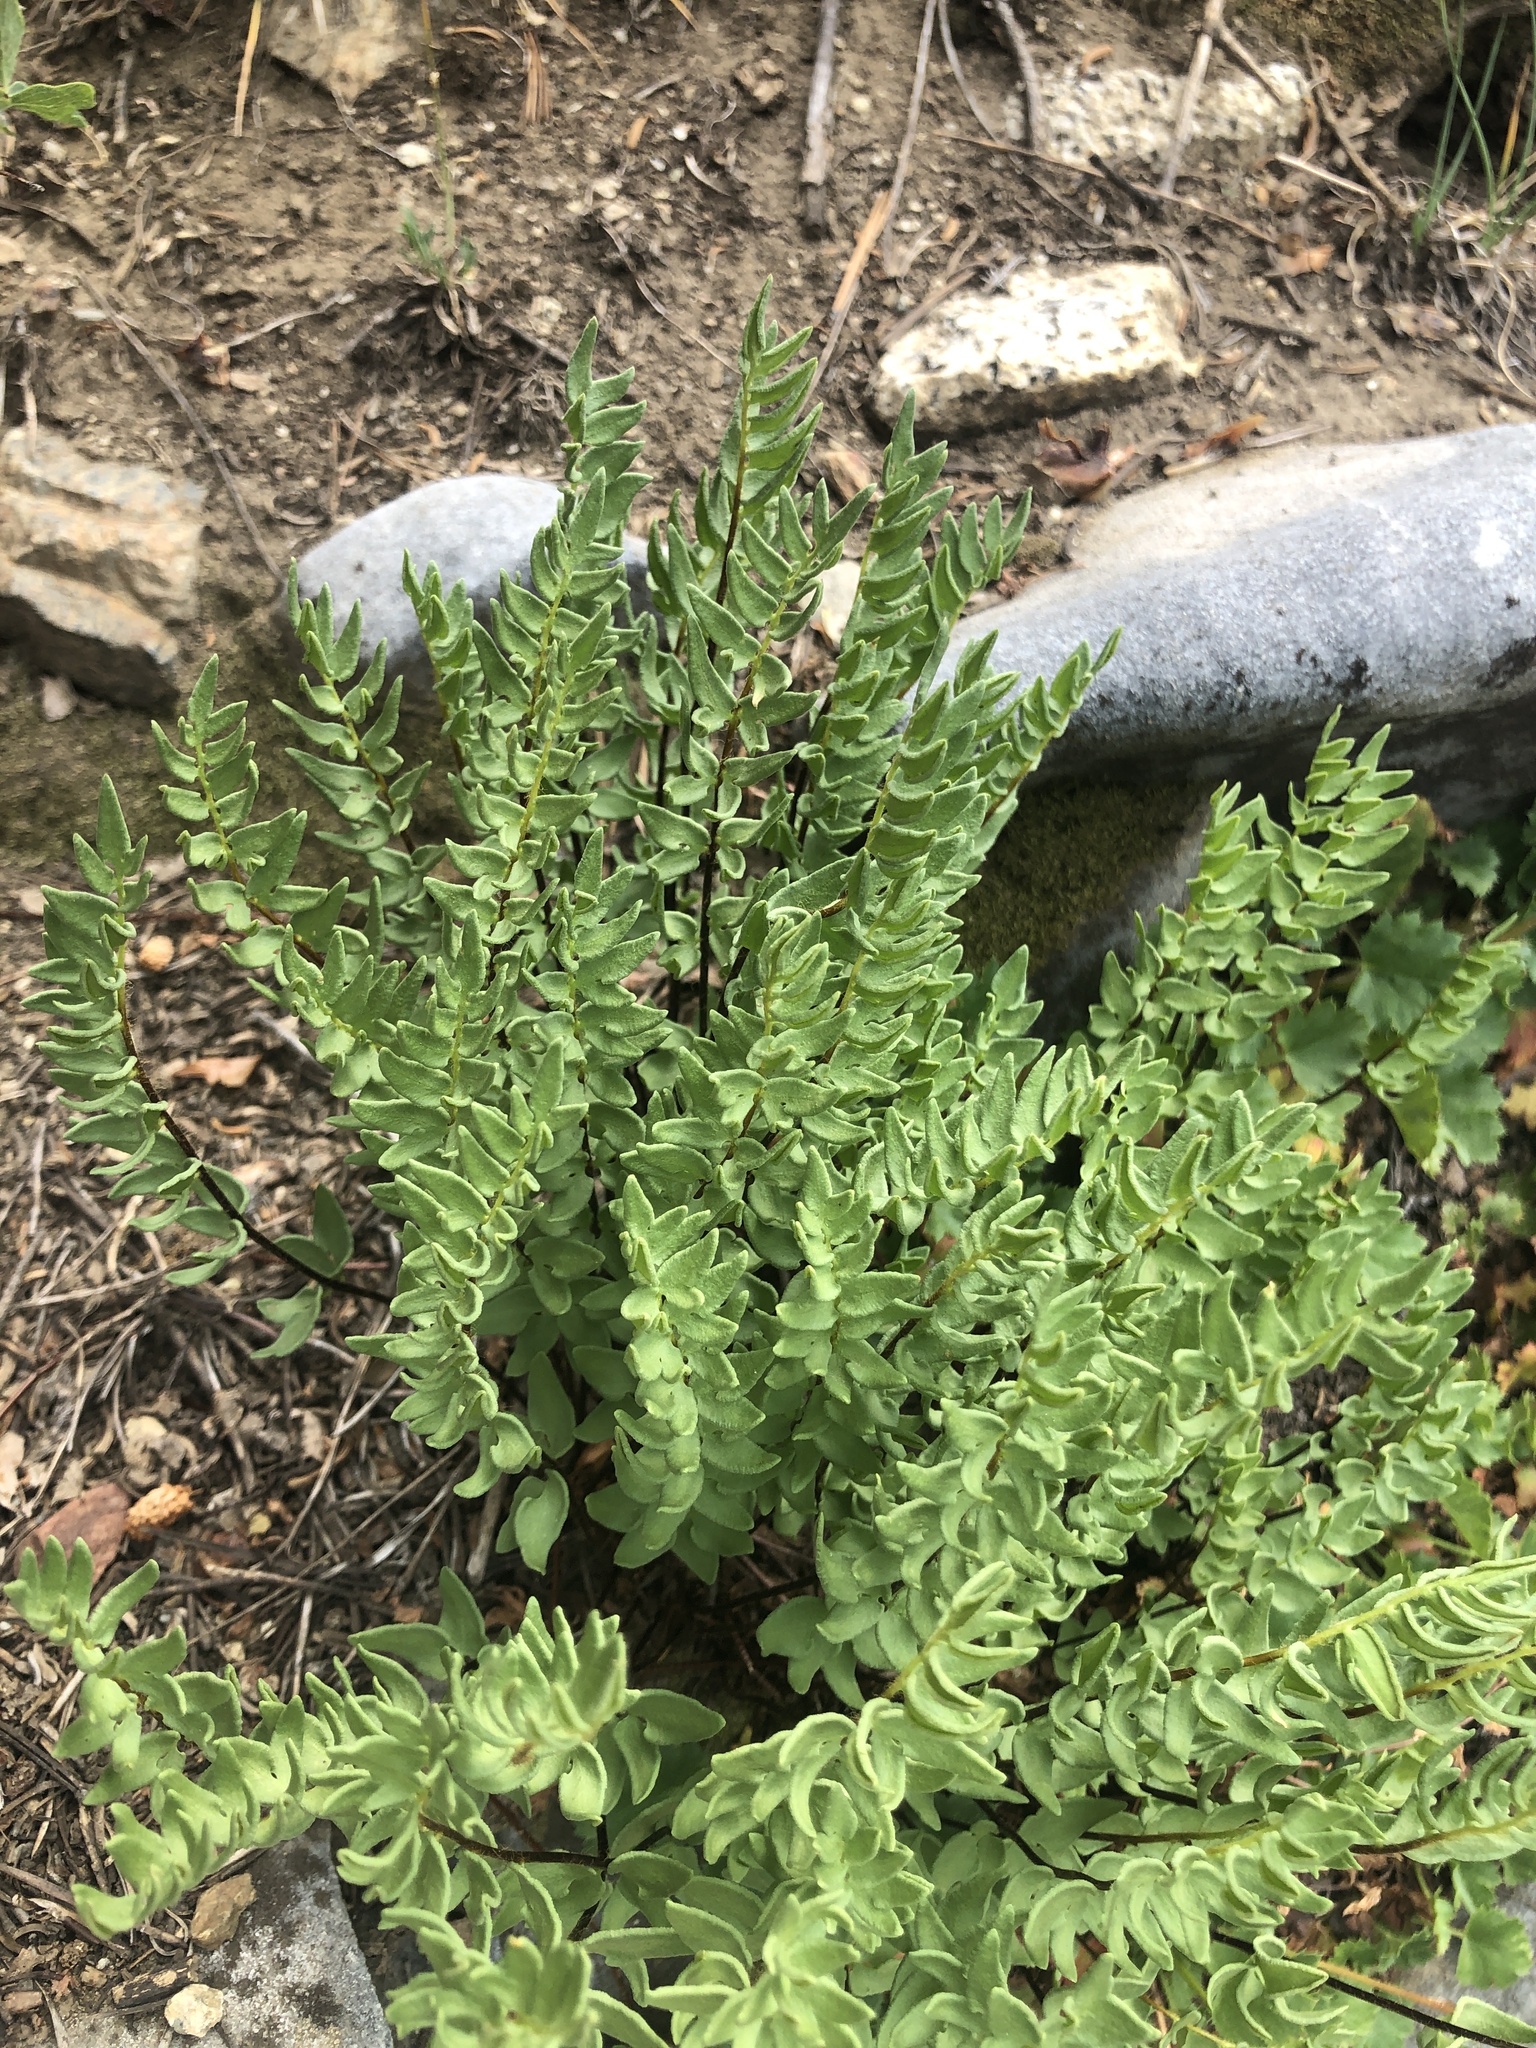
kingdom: Plantae
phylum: Tracheophyta
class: Polypodiopsida
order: Polypodiales
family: Pteridaceae
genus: Pellaea
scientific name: Pellaea breweri
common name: Brewer's cliffbrake
